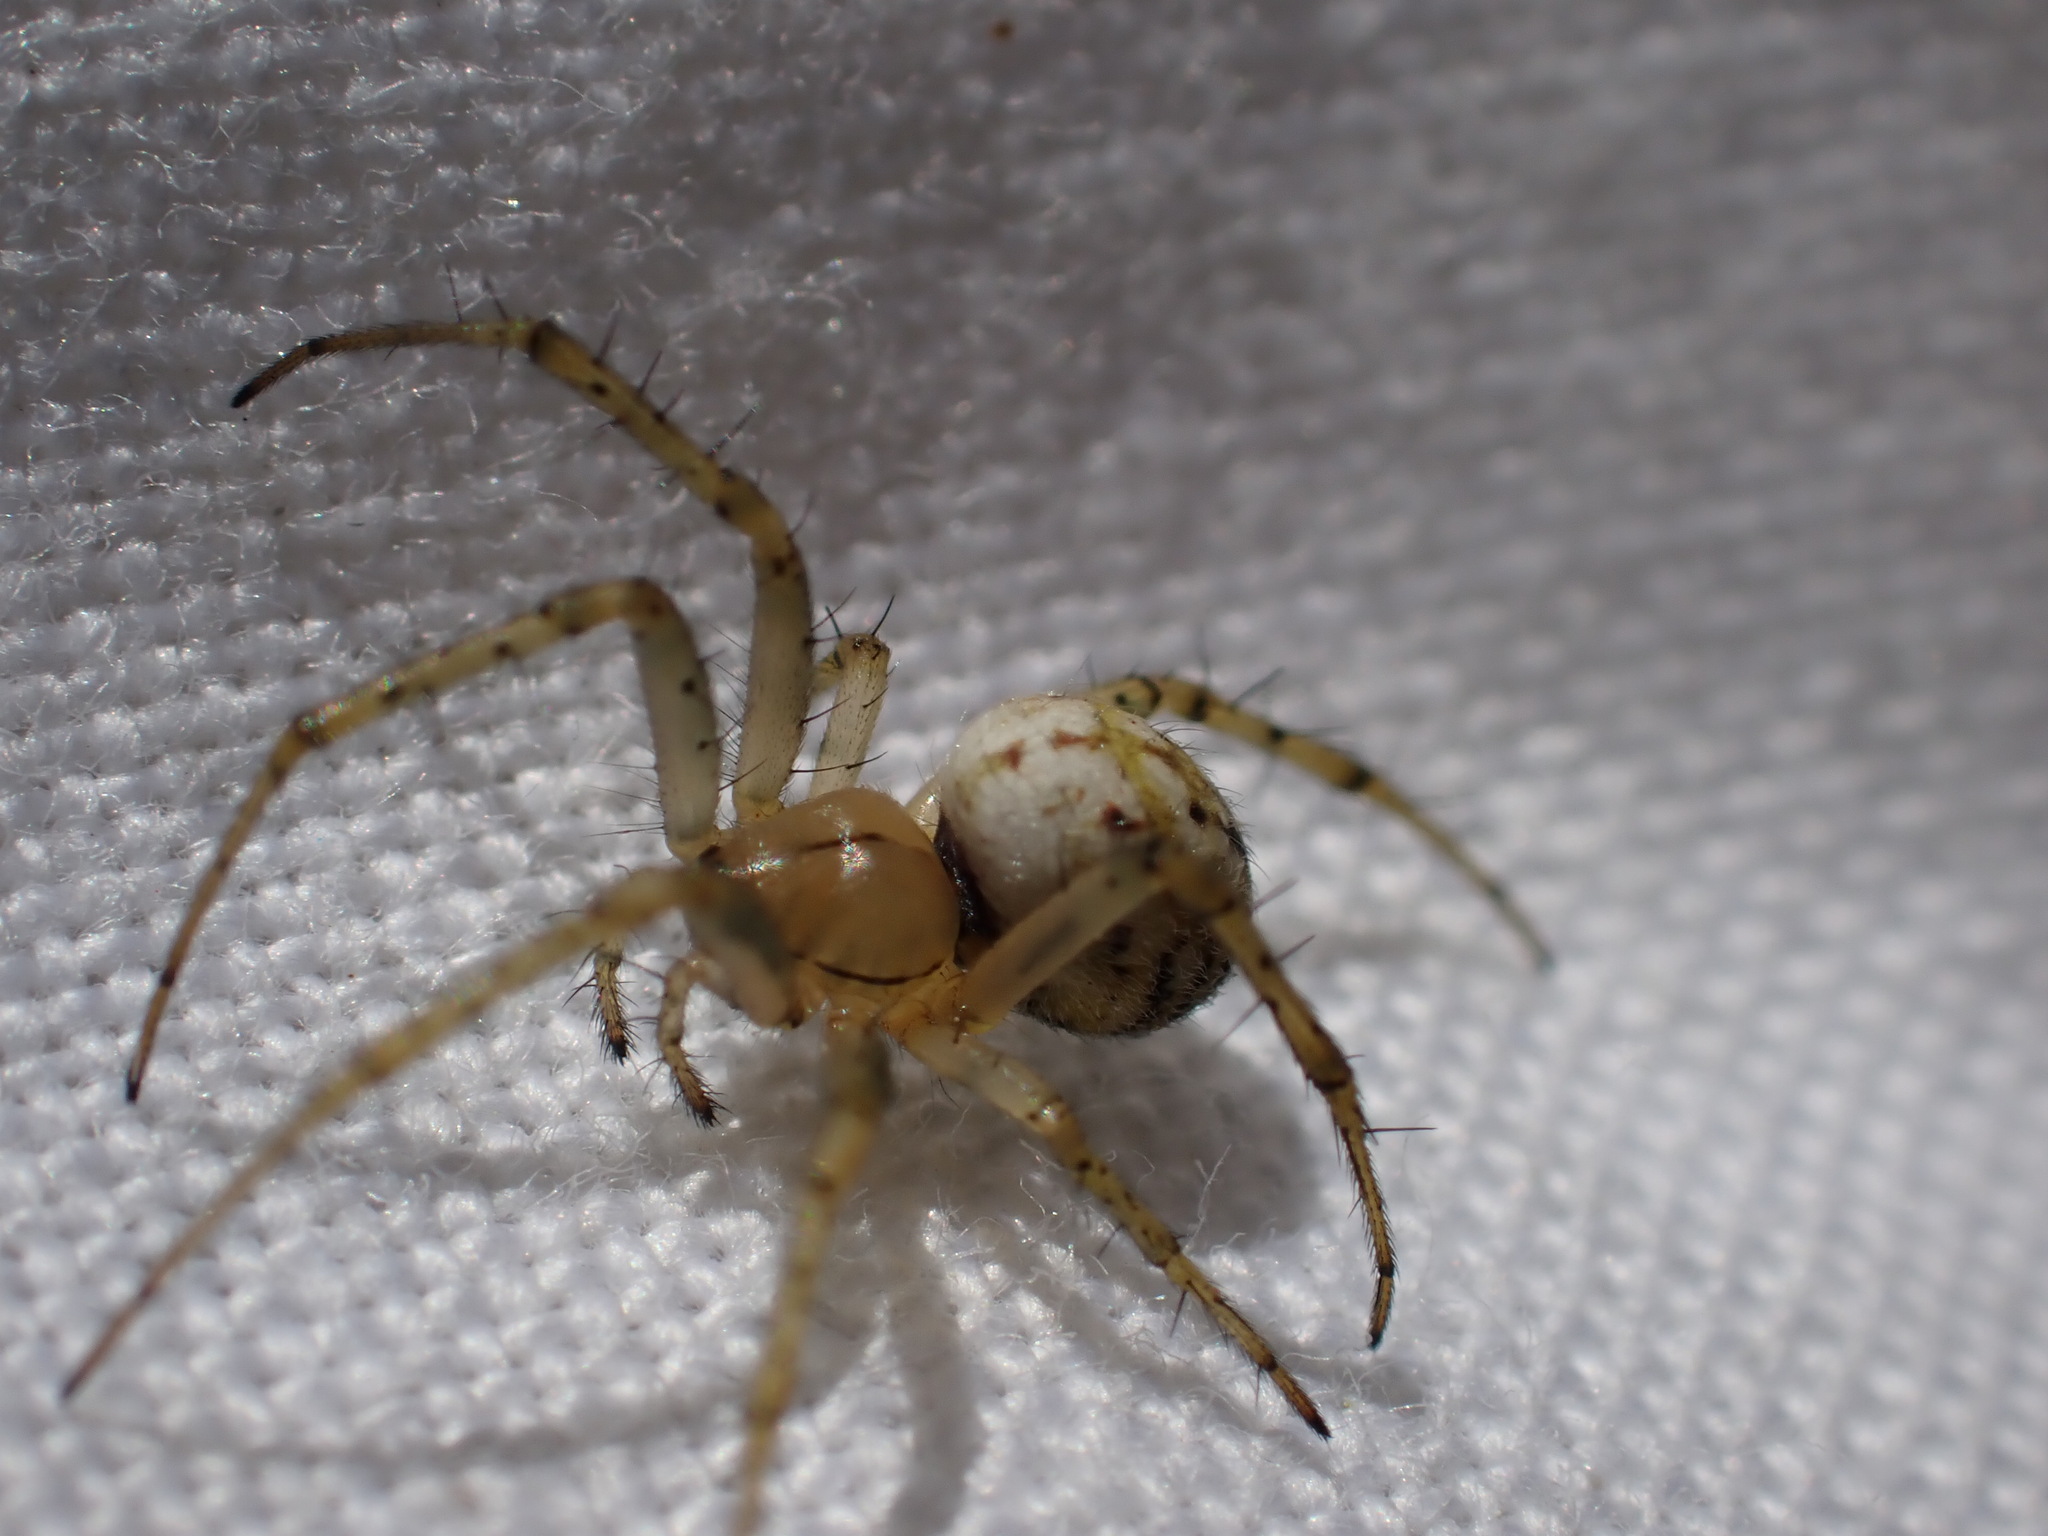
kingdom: Animalia
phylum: Arthropoda
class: Arachnida
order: Araneae
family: Araneidae
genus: Mangora
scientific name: Mangora acalypha
